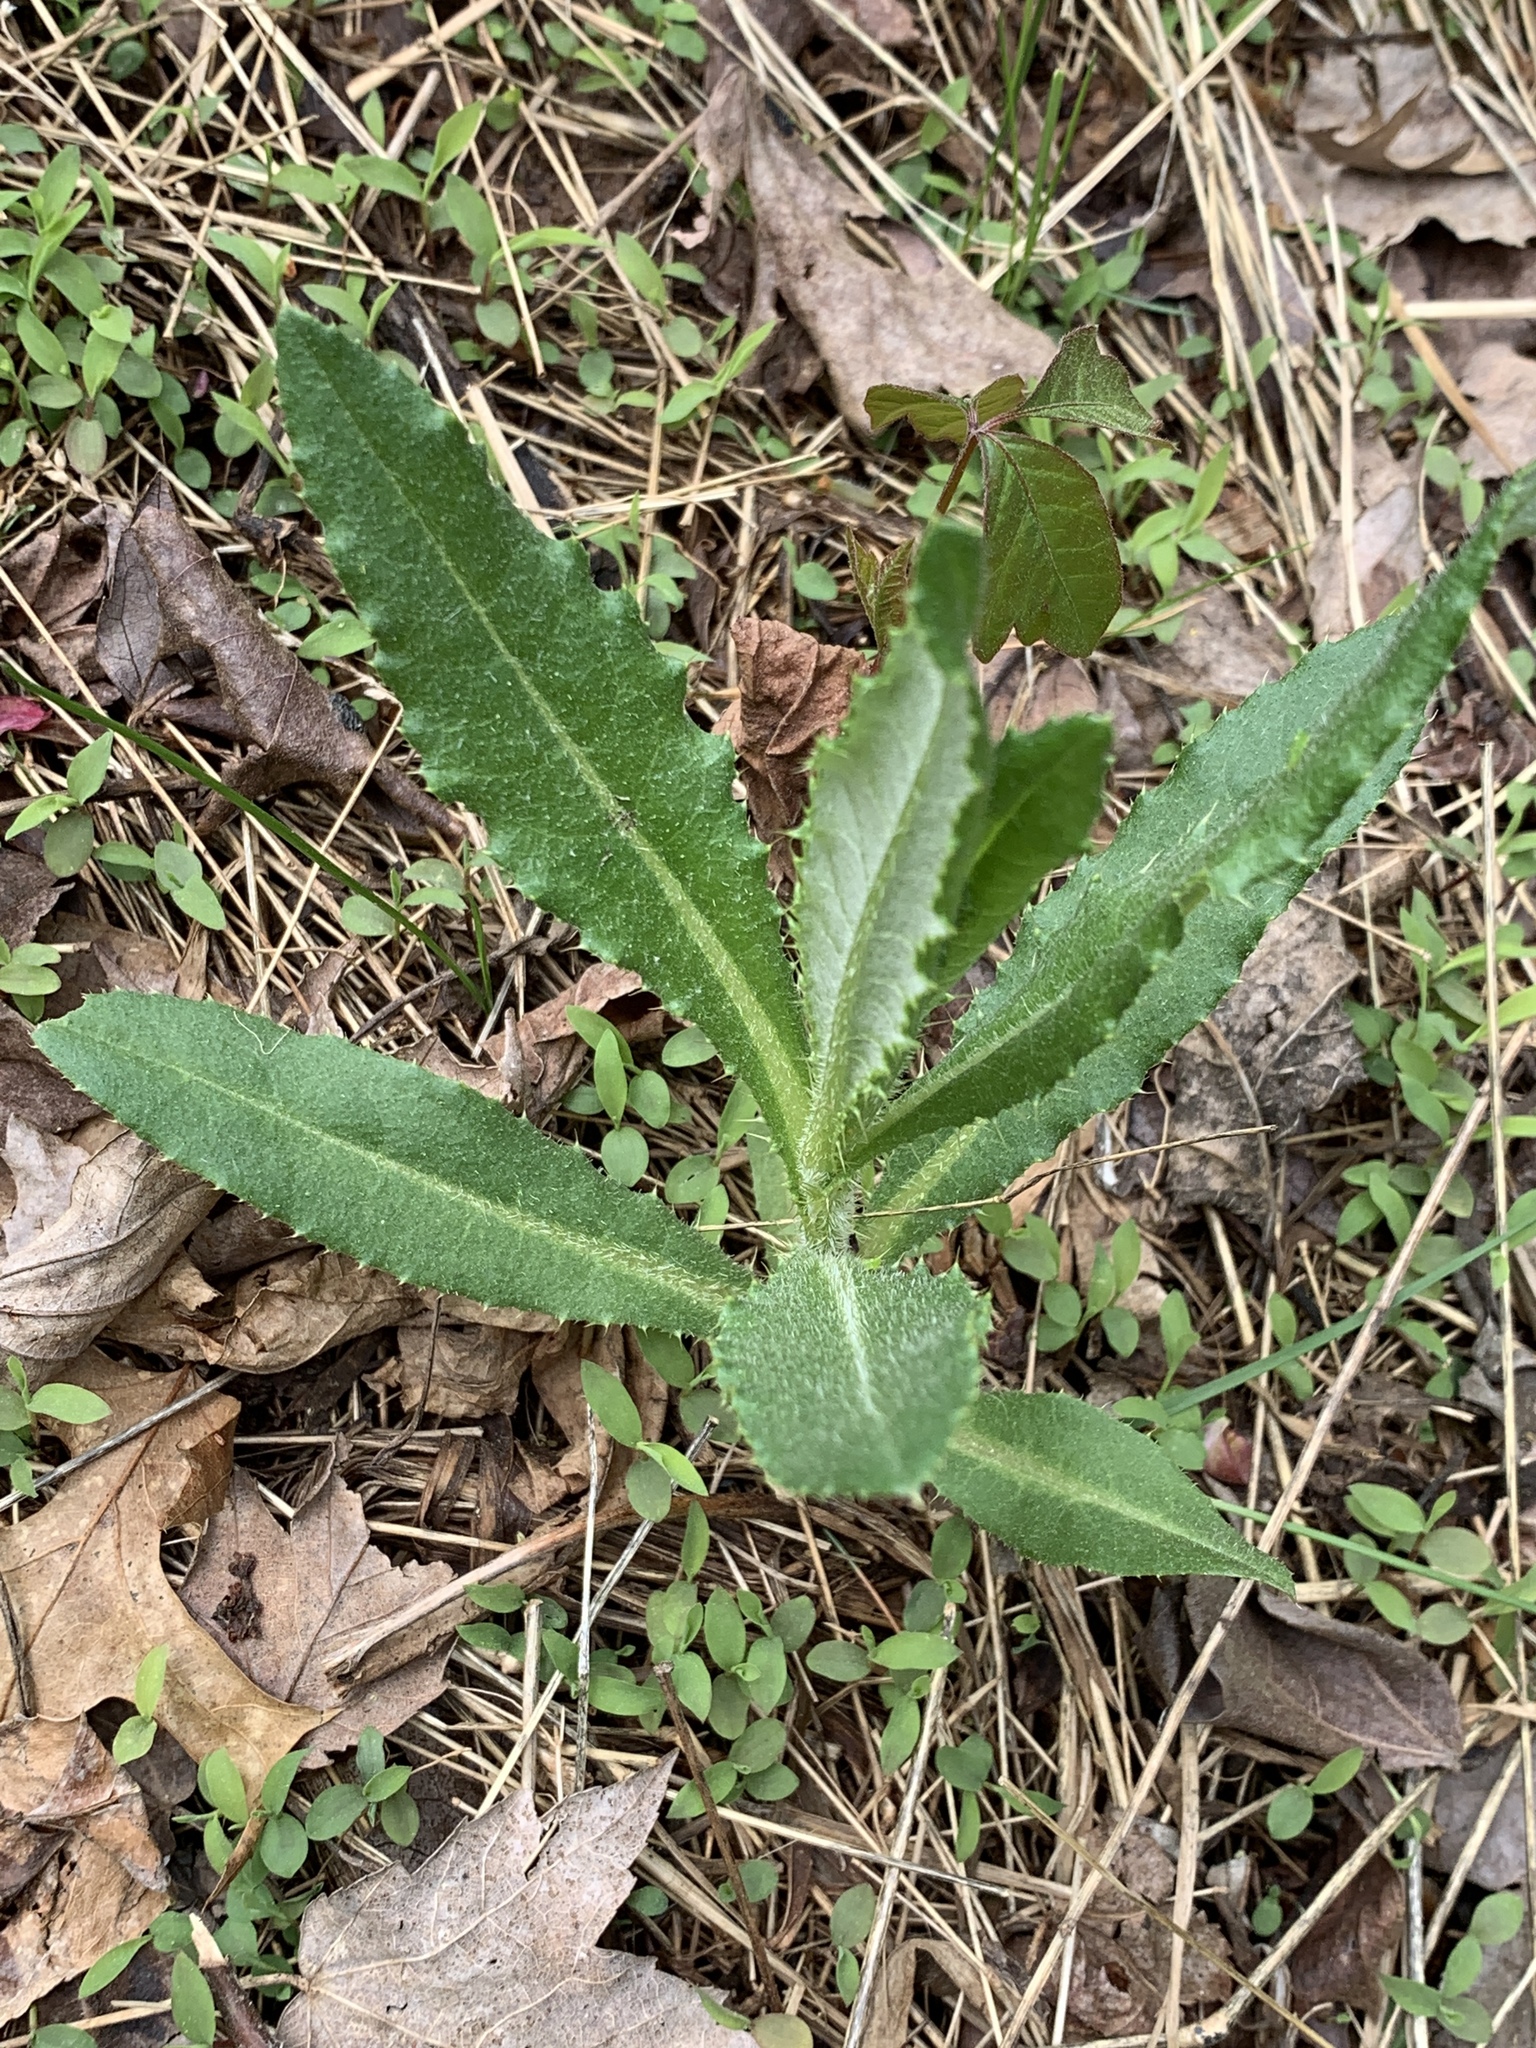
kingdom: Plantae
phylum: Tracheophyta
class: Magnoliopsida
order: Asterales
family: Asteraceae
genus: Cirsium
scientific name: Cirsium arvense
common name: Creeping thistle
